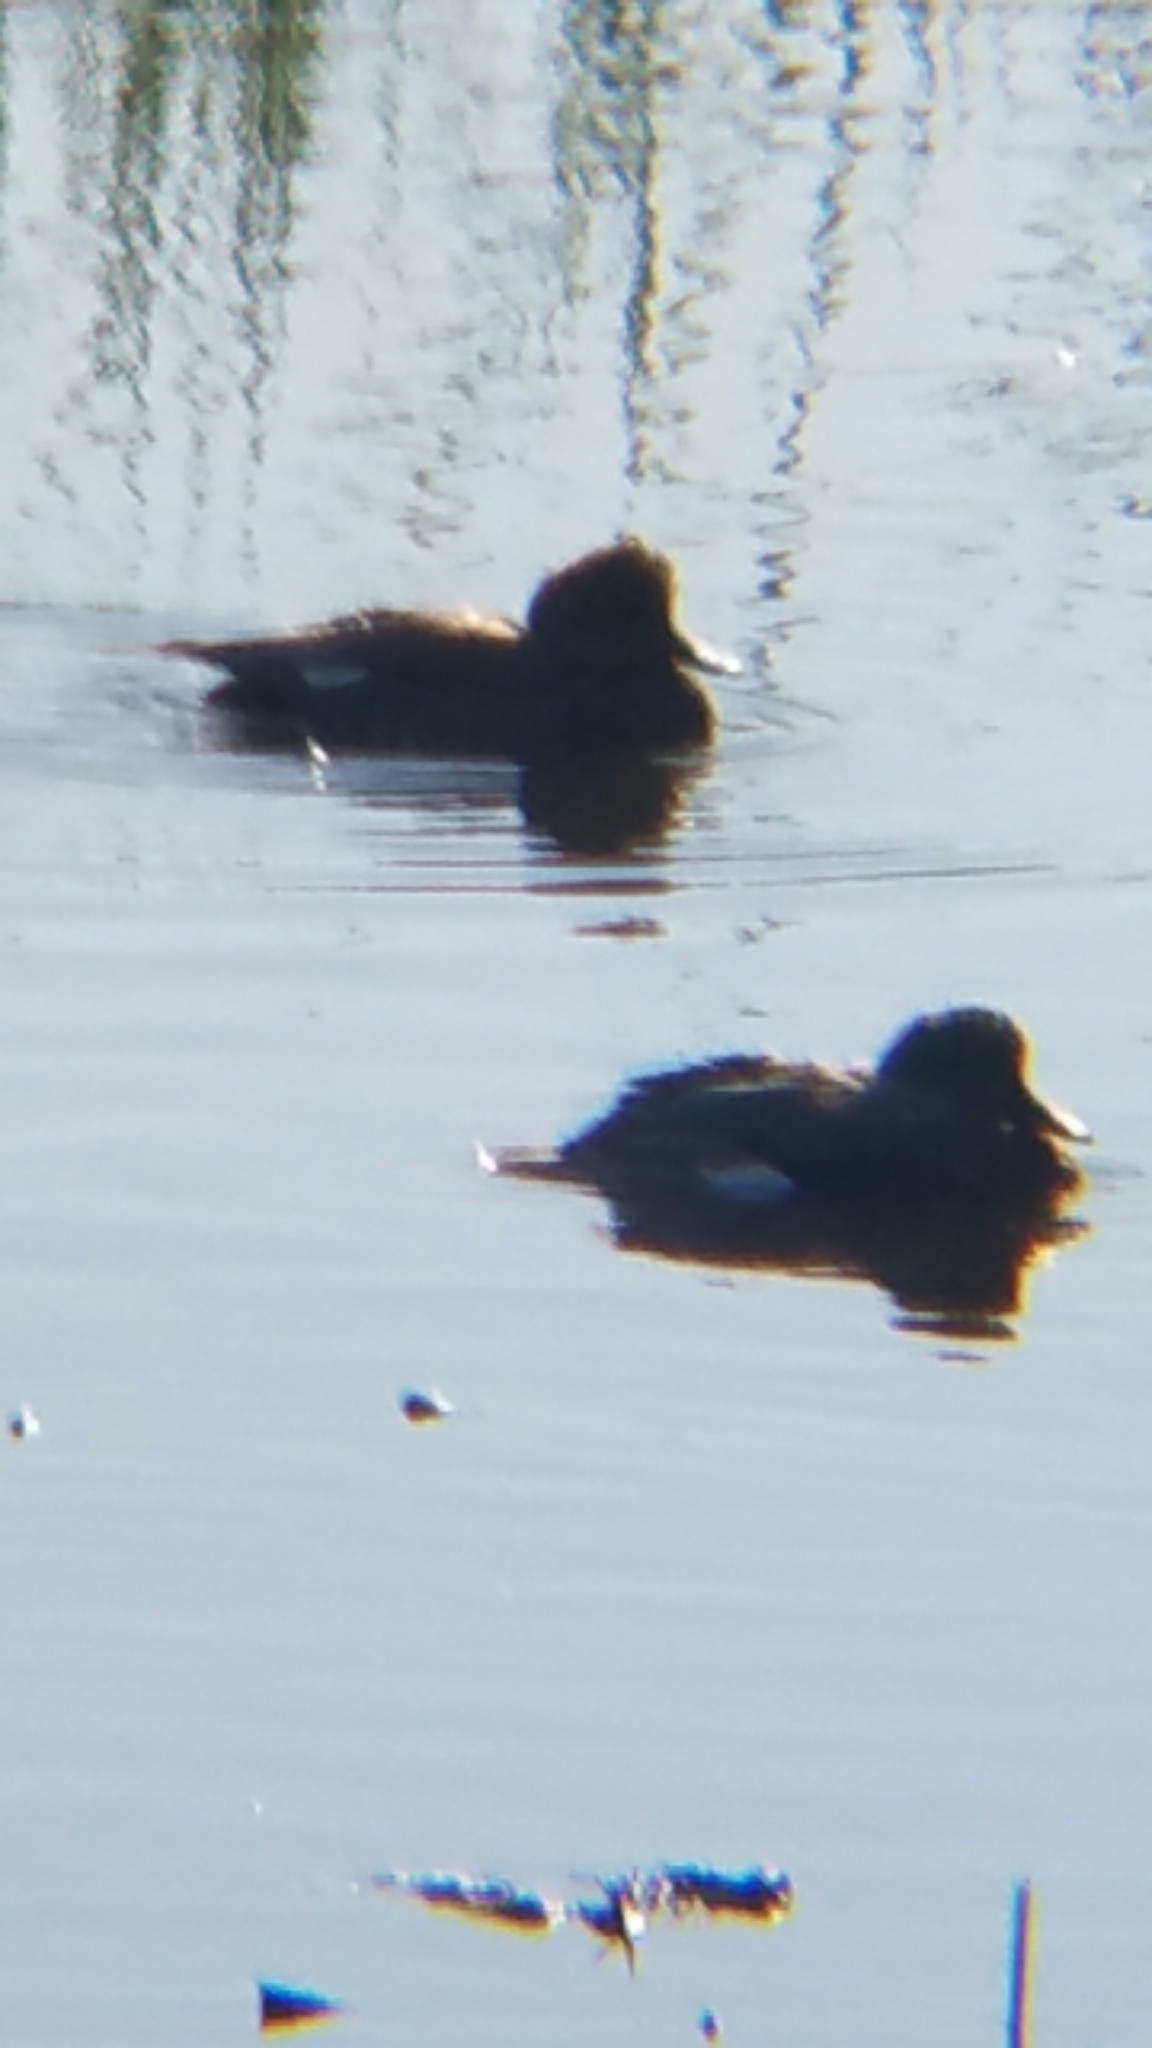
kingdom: Animalia
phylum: Chordata
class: Aves
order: Anseriformes
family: Anatidae
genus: Mareca
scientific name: Mareca americana
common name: American wigeon
